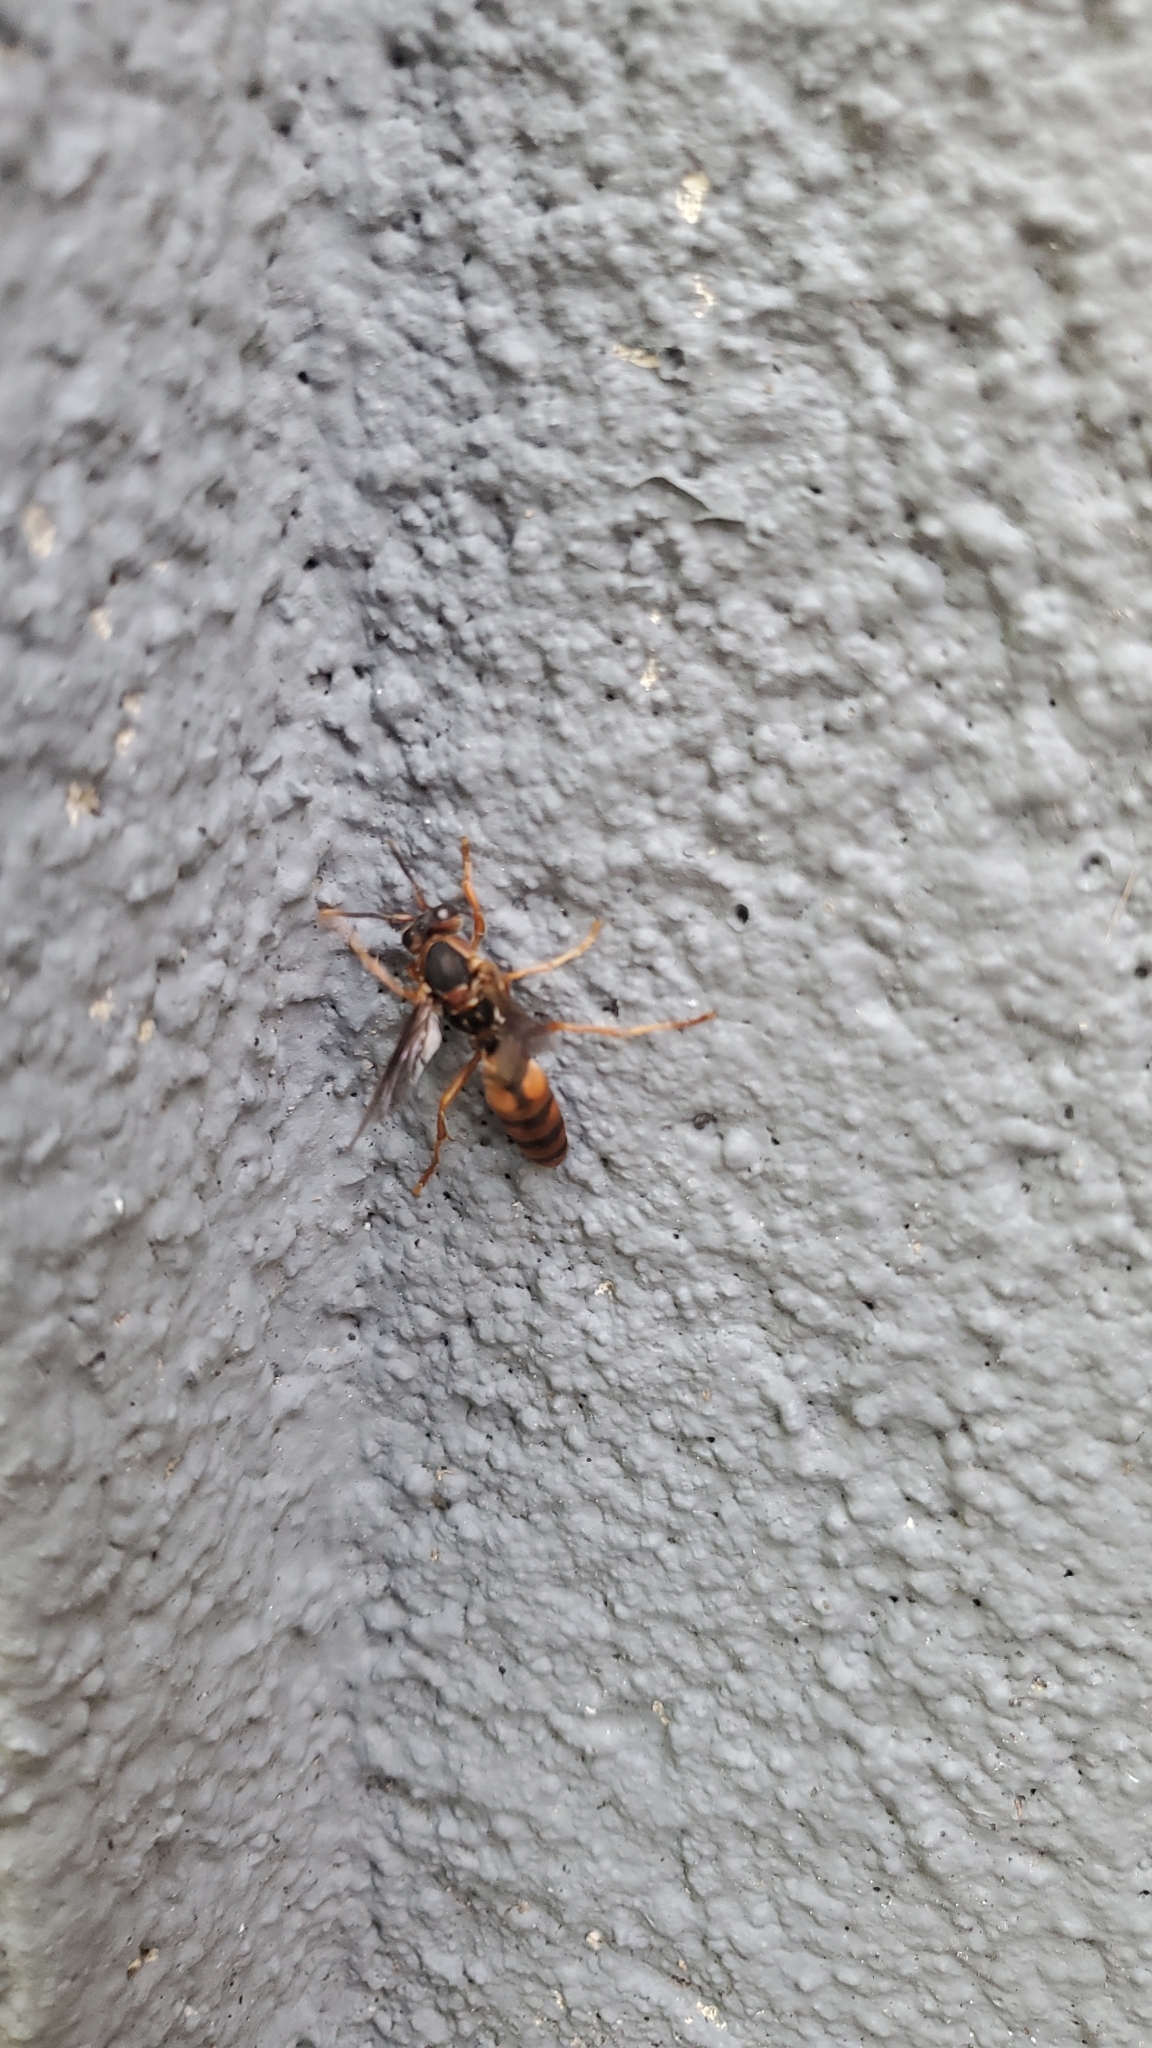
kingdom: Animalia
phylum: Arthropoda
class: Insecta
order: Hymenoptera
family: Eumenidae
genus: Polistes
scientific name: Polistes fuscatus
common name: Dark paper wasp
